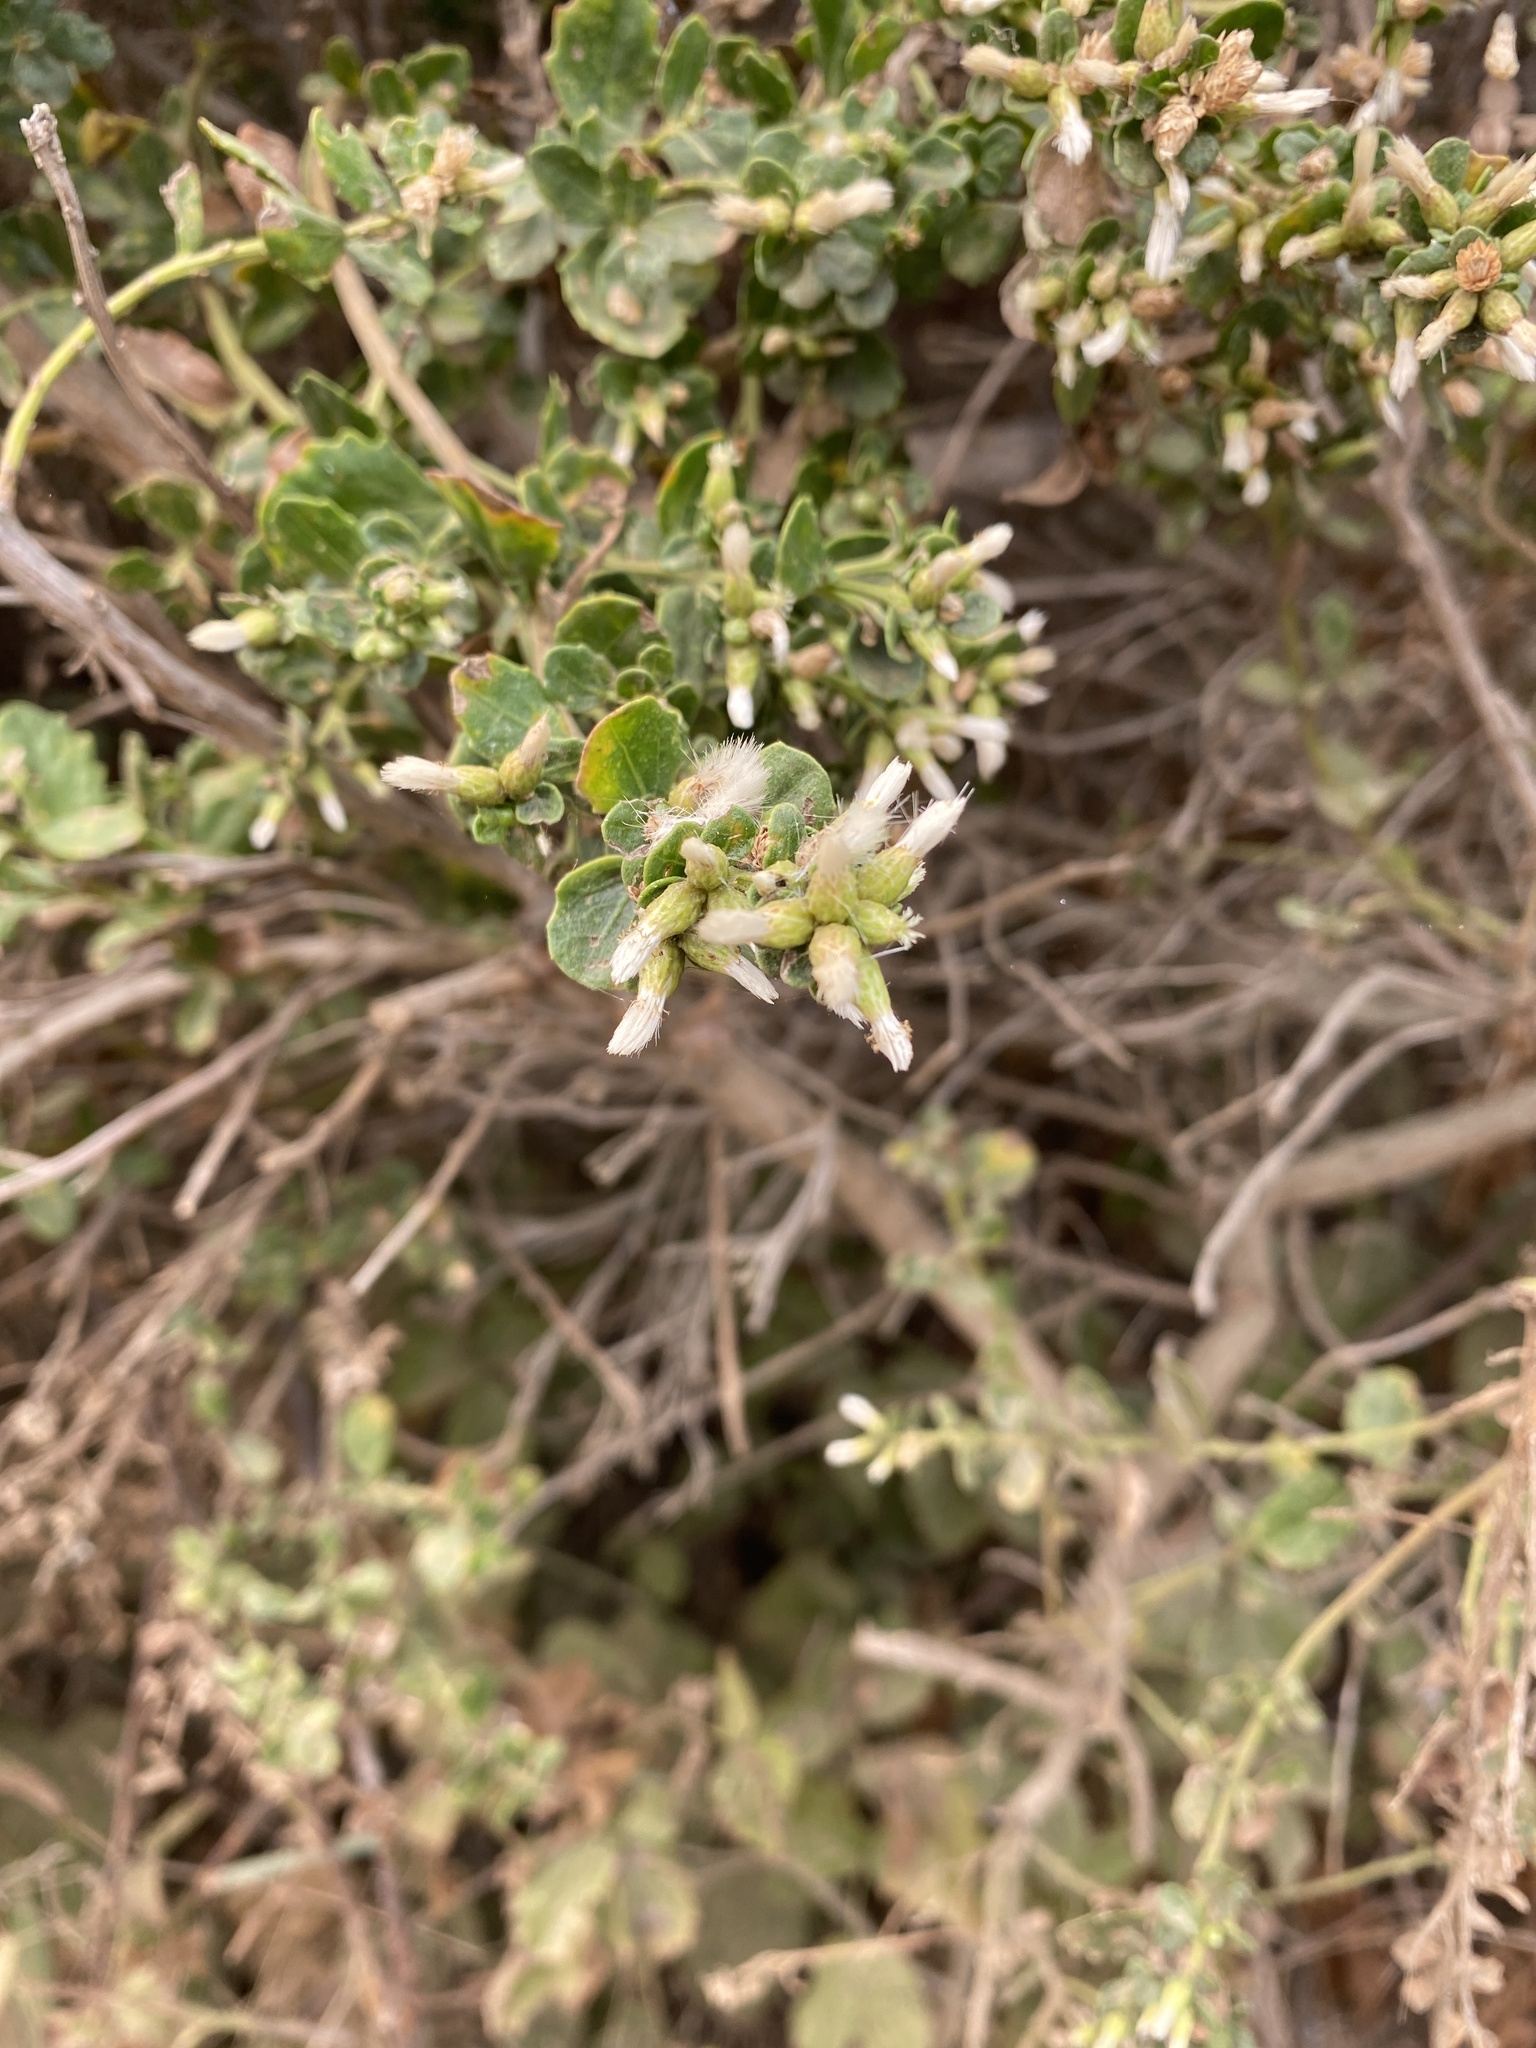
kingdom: Plantae
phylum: Tracheophyta
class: Magnoliopsida
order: Asterales
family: Asteraceae
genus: Baccharis
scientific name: Baccharis pilularis
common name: Coyotebrush
